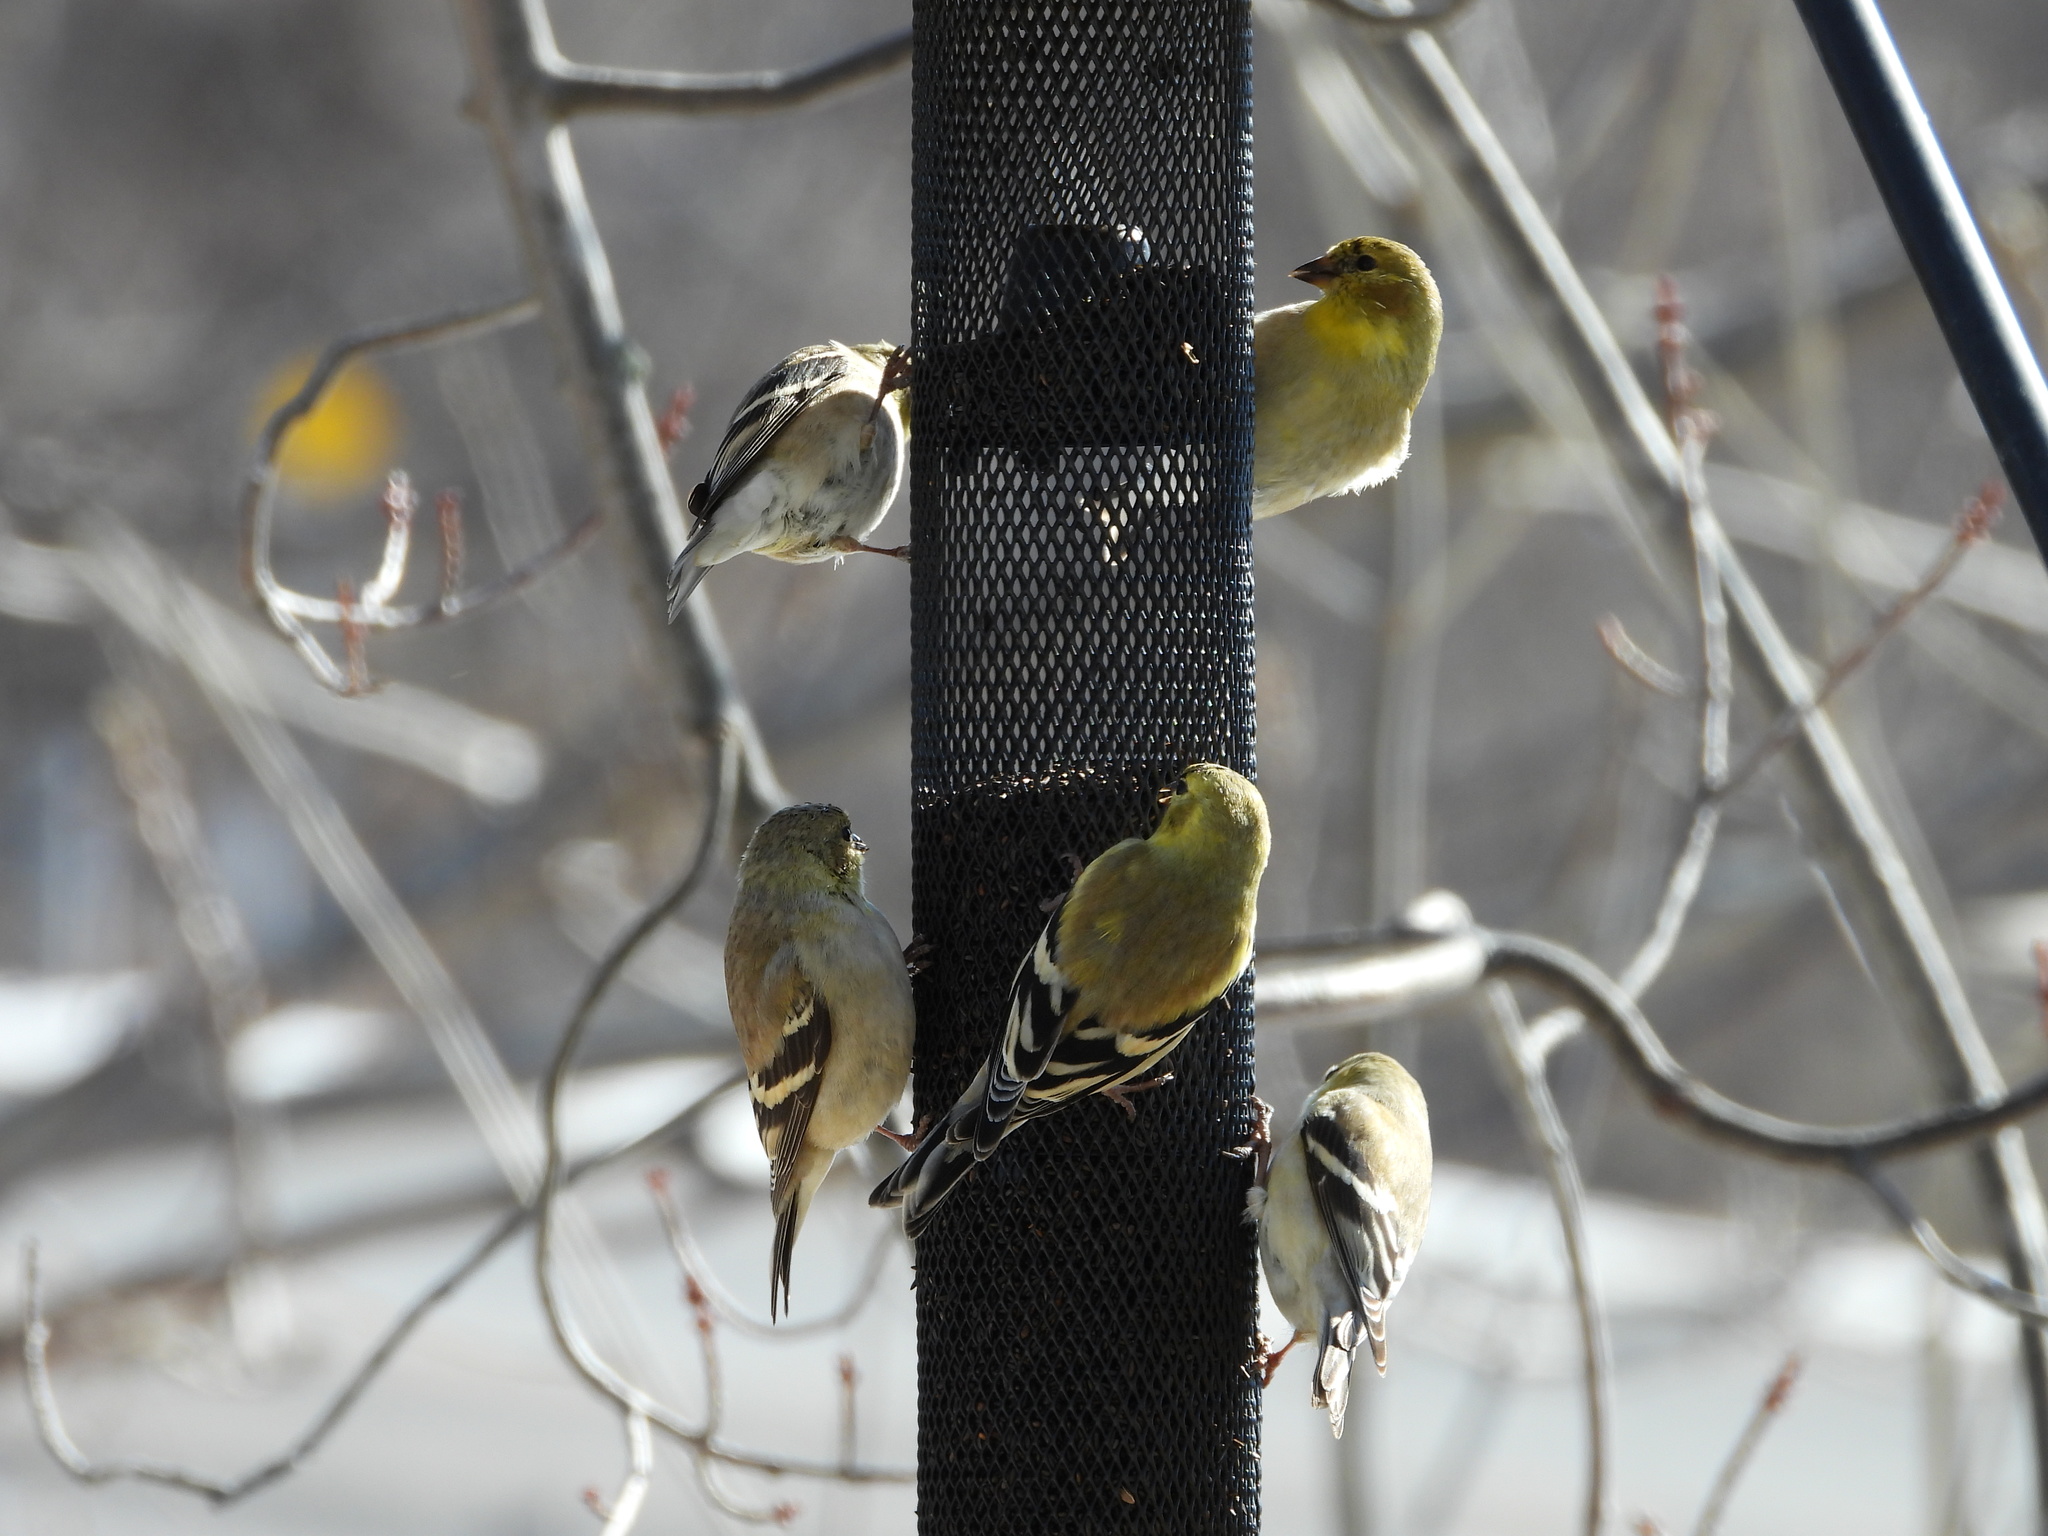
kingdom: Animalia
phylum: Chordata
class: Aves
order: Passeriformes
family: Fringillidae
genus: Spinus
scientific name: Spinus tristis
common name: American goldfinch
